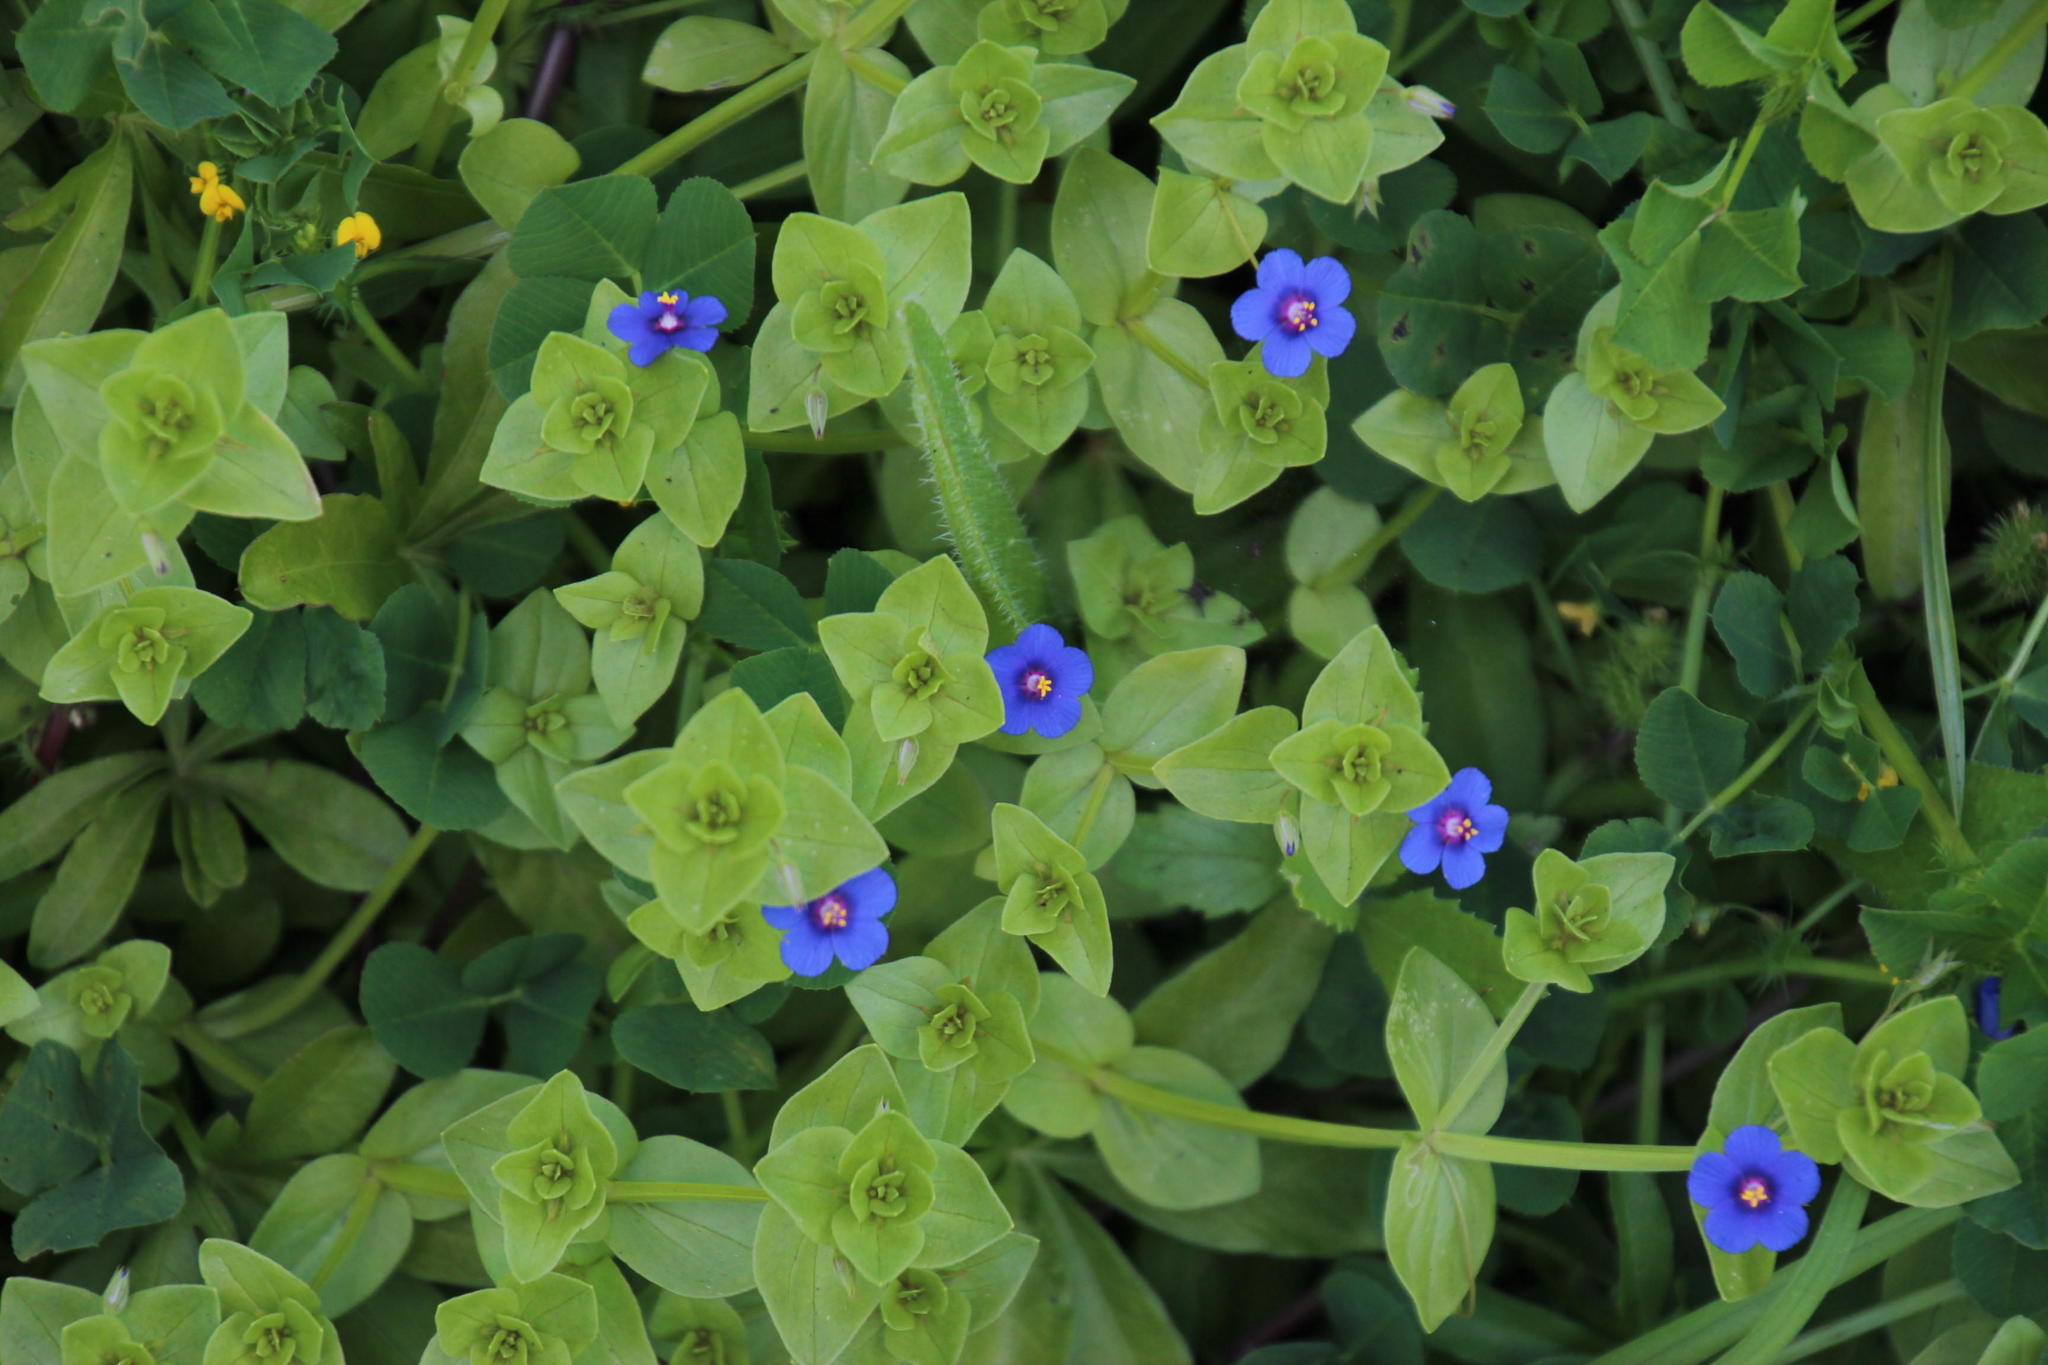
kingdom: Plantae
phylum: Tracheophyta
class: Magnoliopsida
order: Ericales
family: Primulaceae
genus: Lysimachia
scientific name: Lysimachia loeflingii
